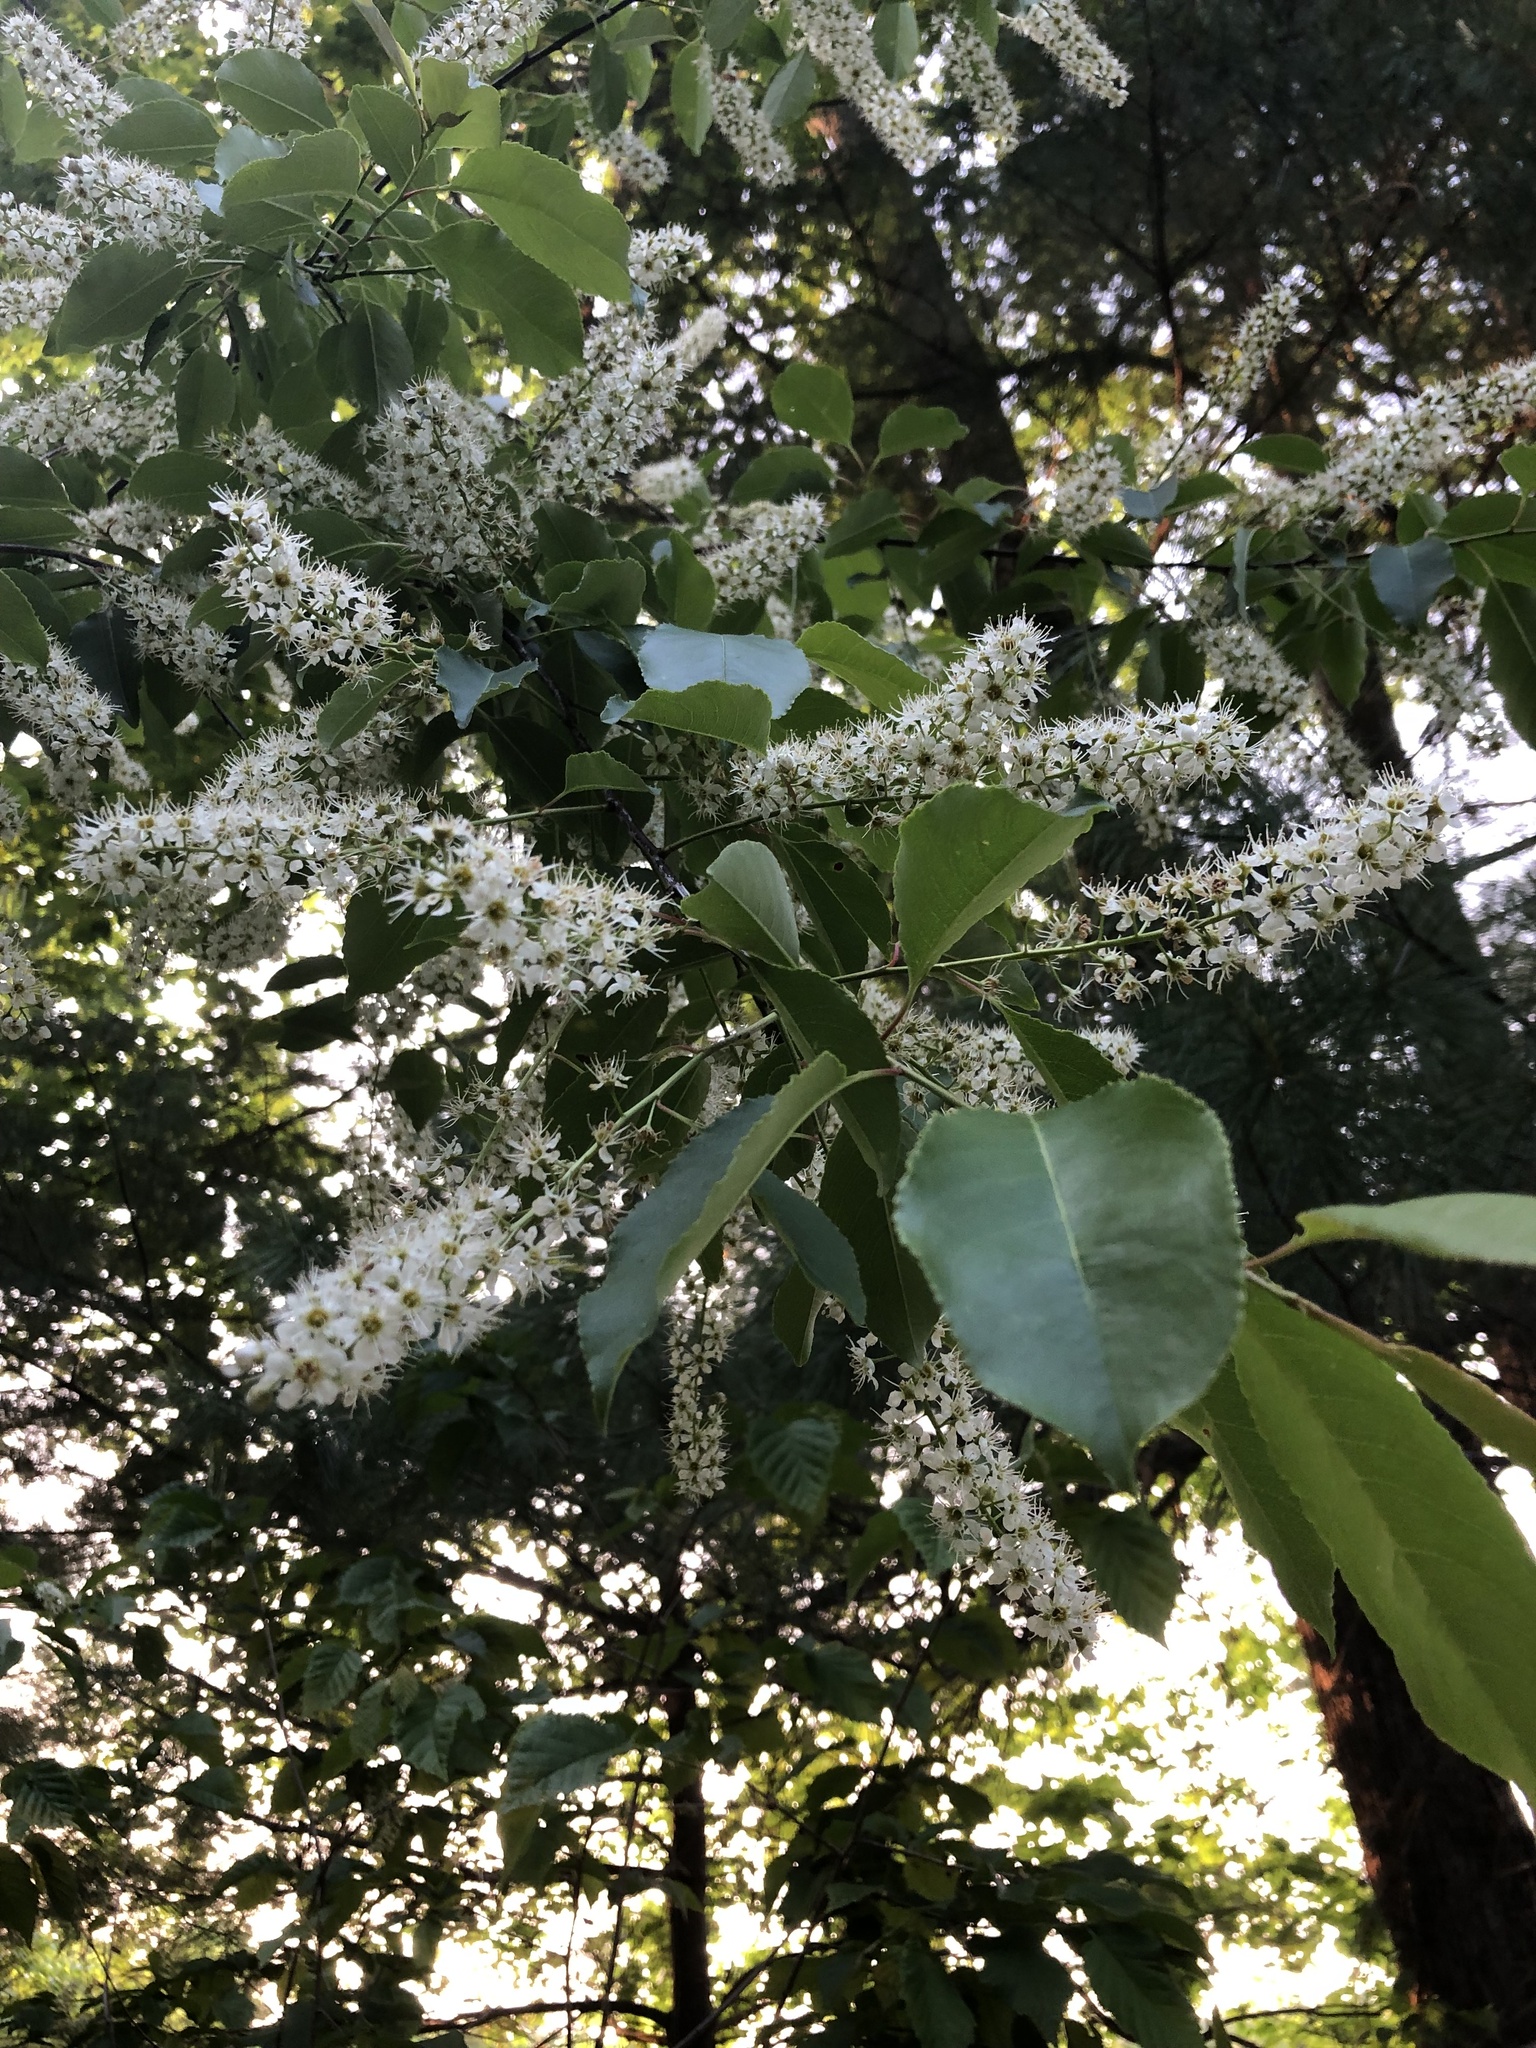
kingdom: Plantae
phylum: Tracheophyta
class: Magnoliopsida
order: Rosales
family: Rosaceae
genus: Prunus
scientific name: Prunus serotina
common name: Black cherry
